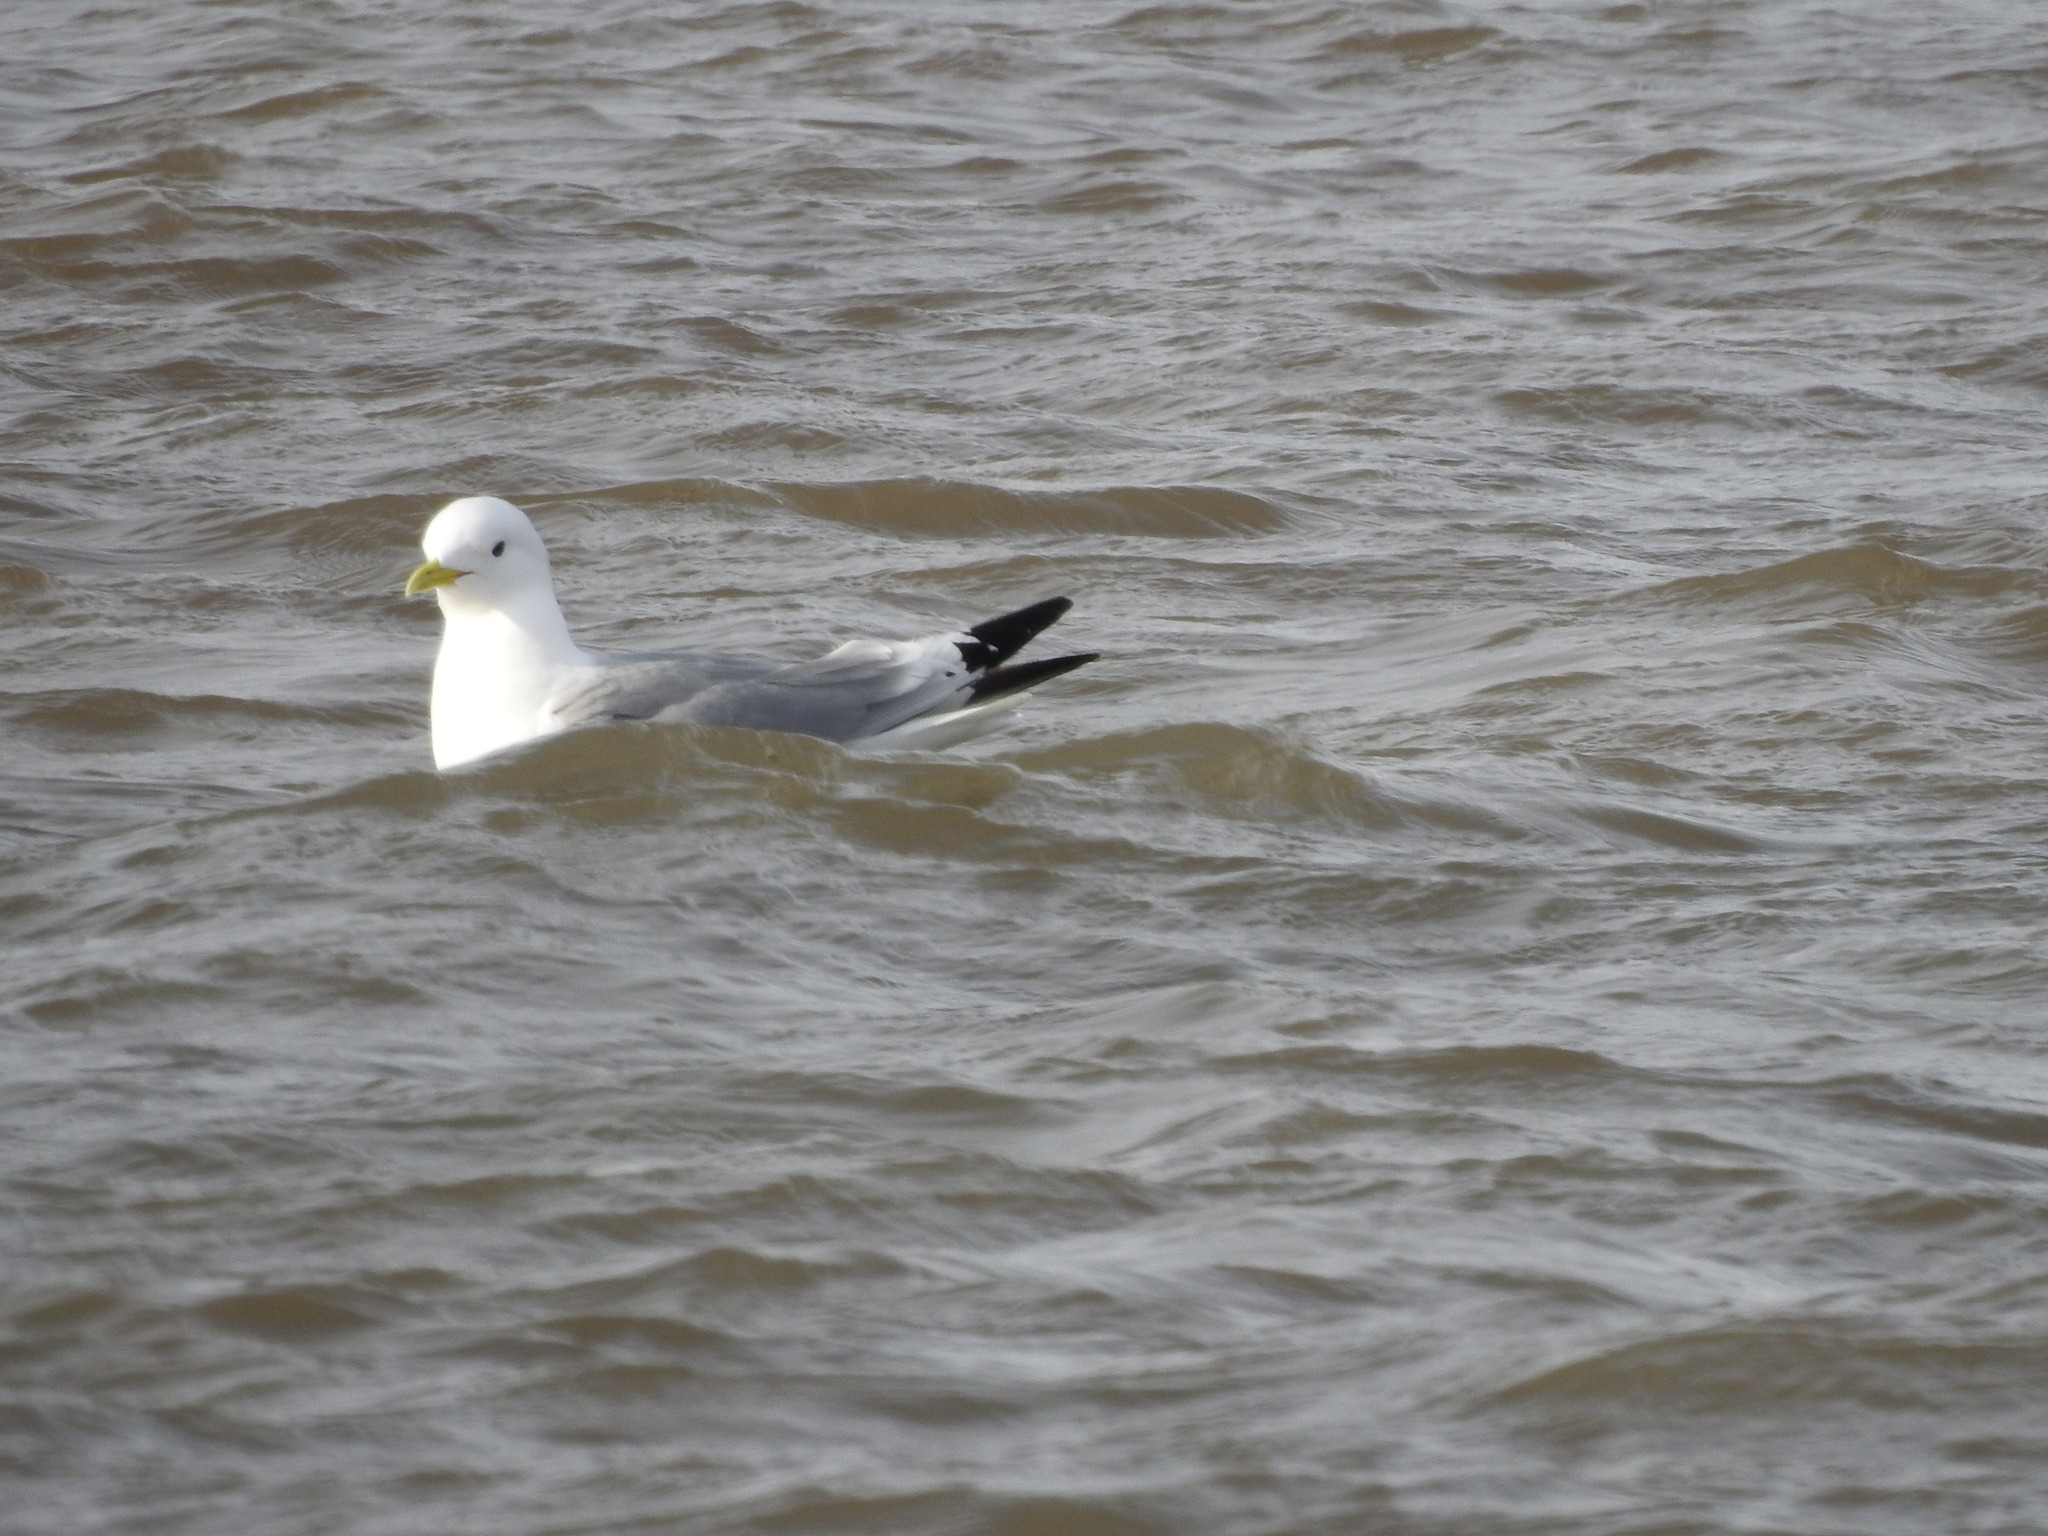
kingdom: Animalia
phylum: Chordata
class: Aves
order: Charadriiformes
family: Laridae
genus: Rissa
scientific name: Rissa tridactyla
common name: Black-legged kittiwake
